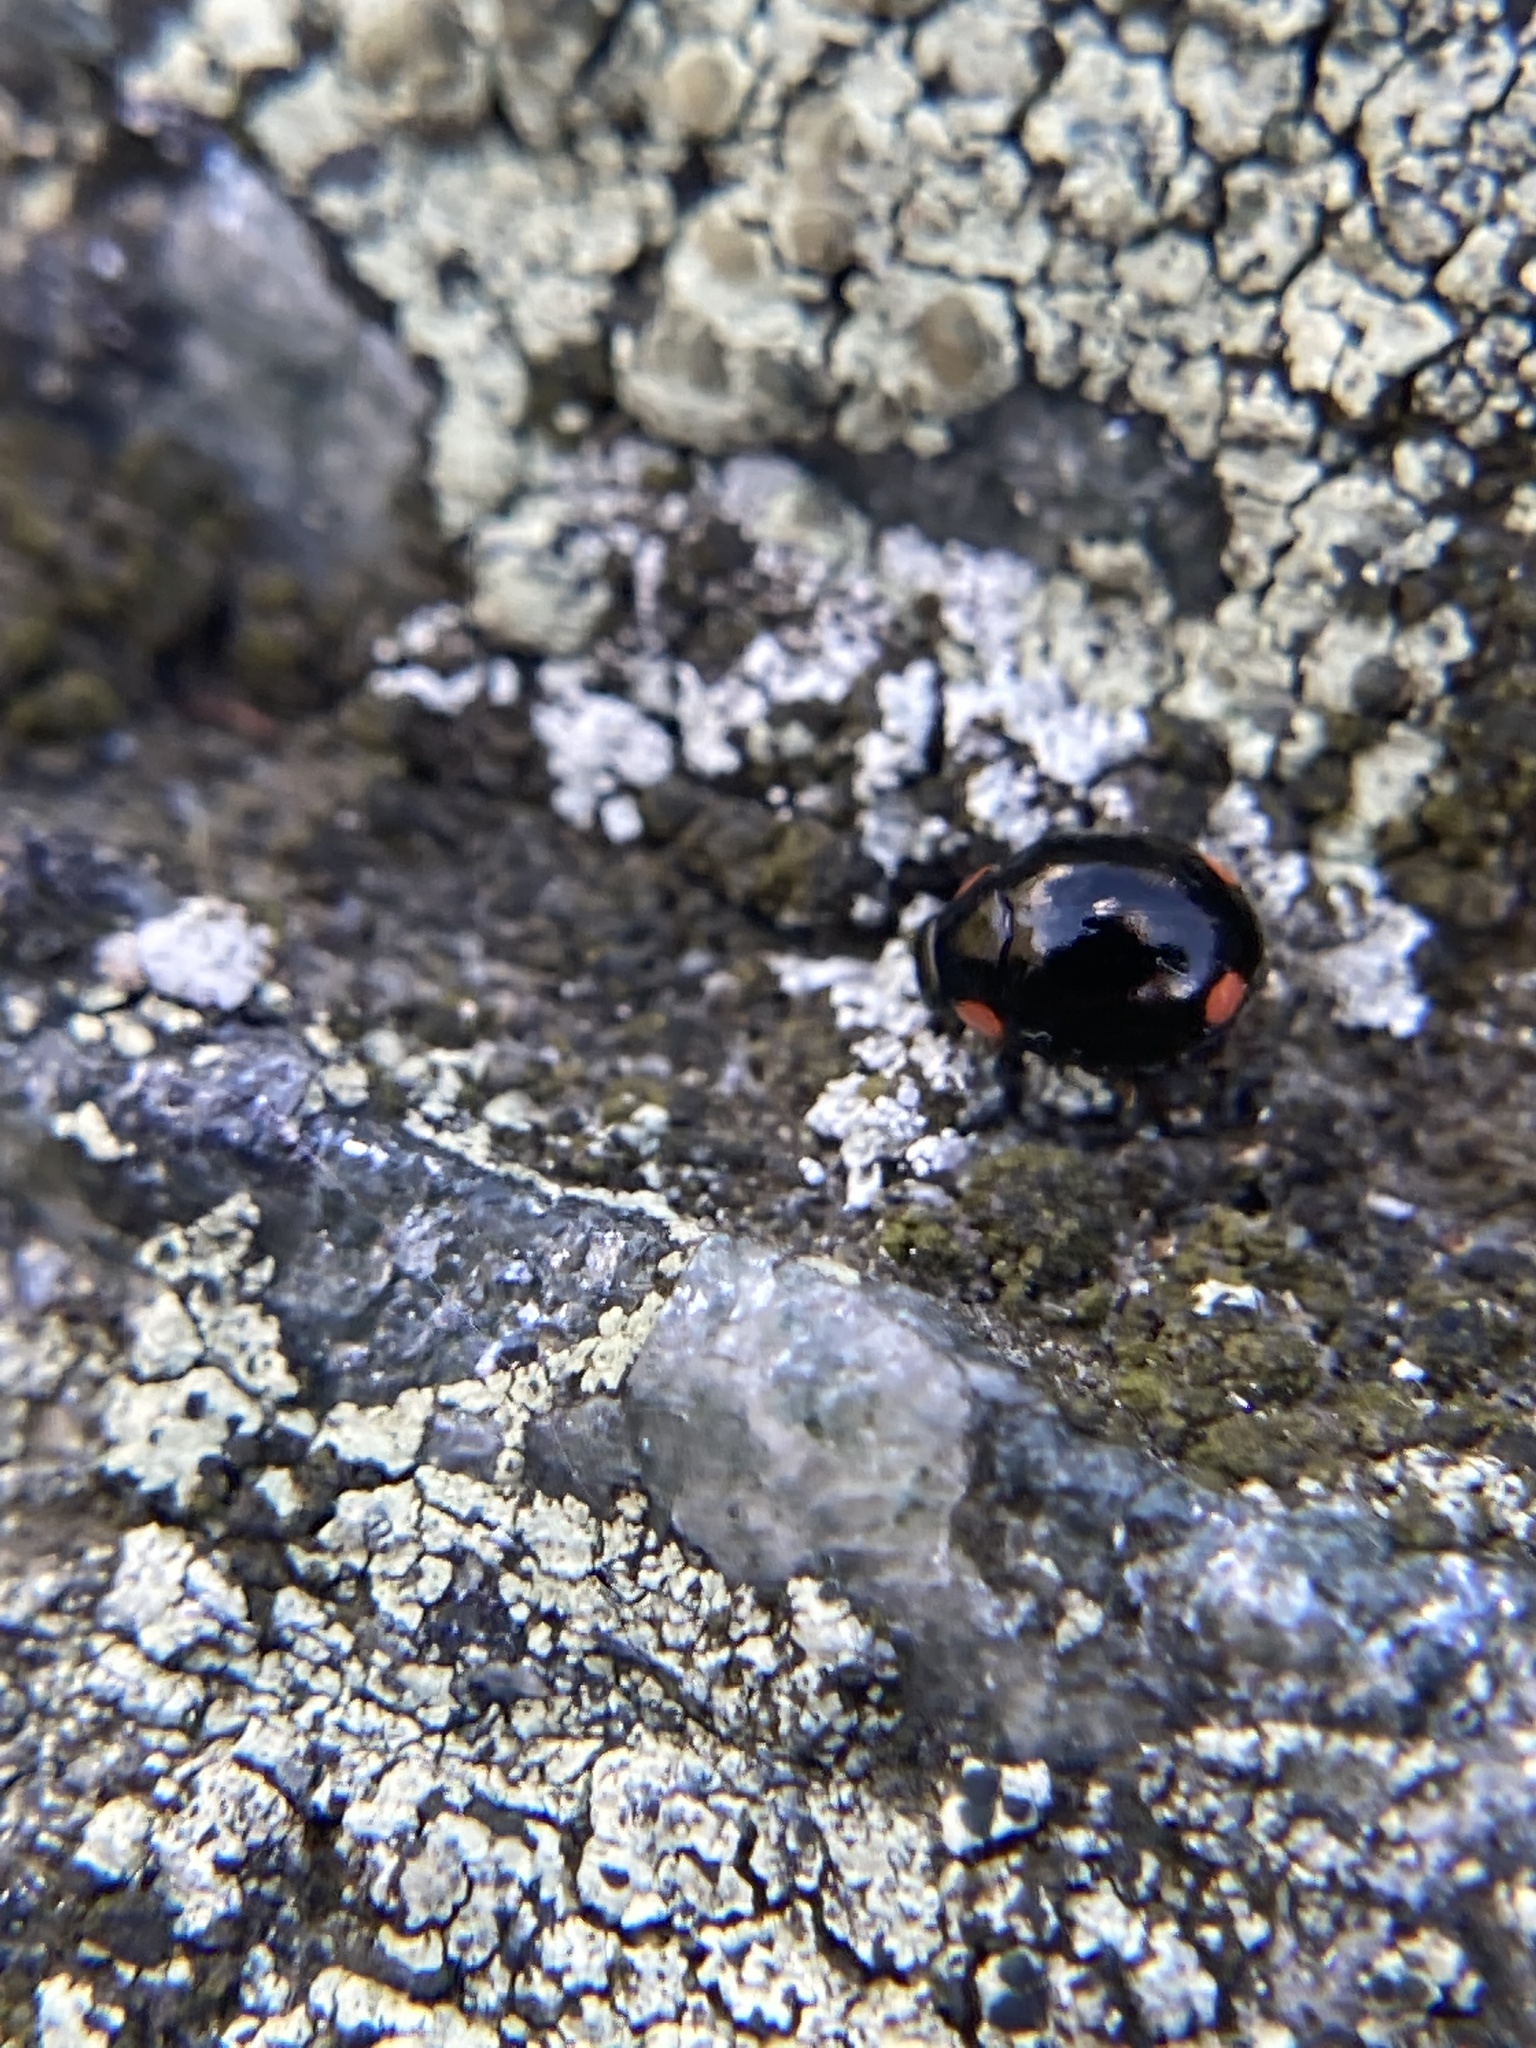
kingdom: Animalia
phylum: Arthropoda
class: Insecta
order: Coleoptera
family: Coccinellidae
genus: Hyperaspis
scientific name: Hyperaspis bigeminata
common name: Bigeminate sigil lady beetle
